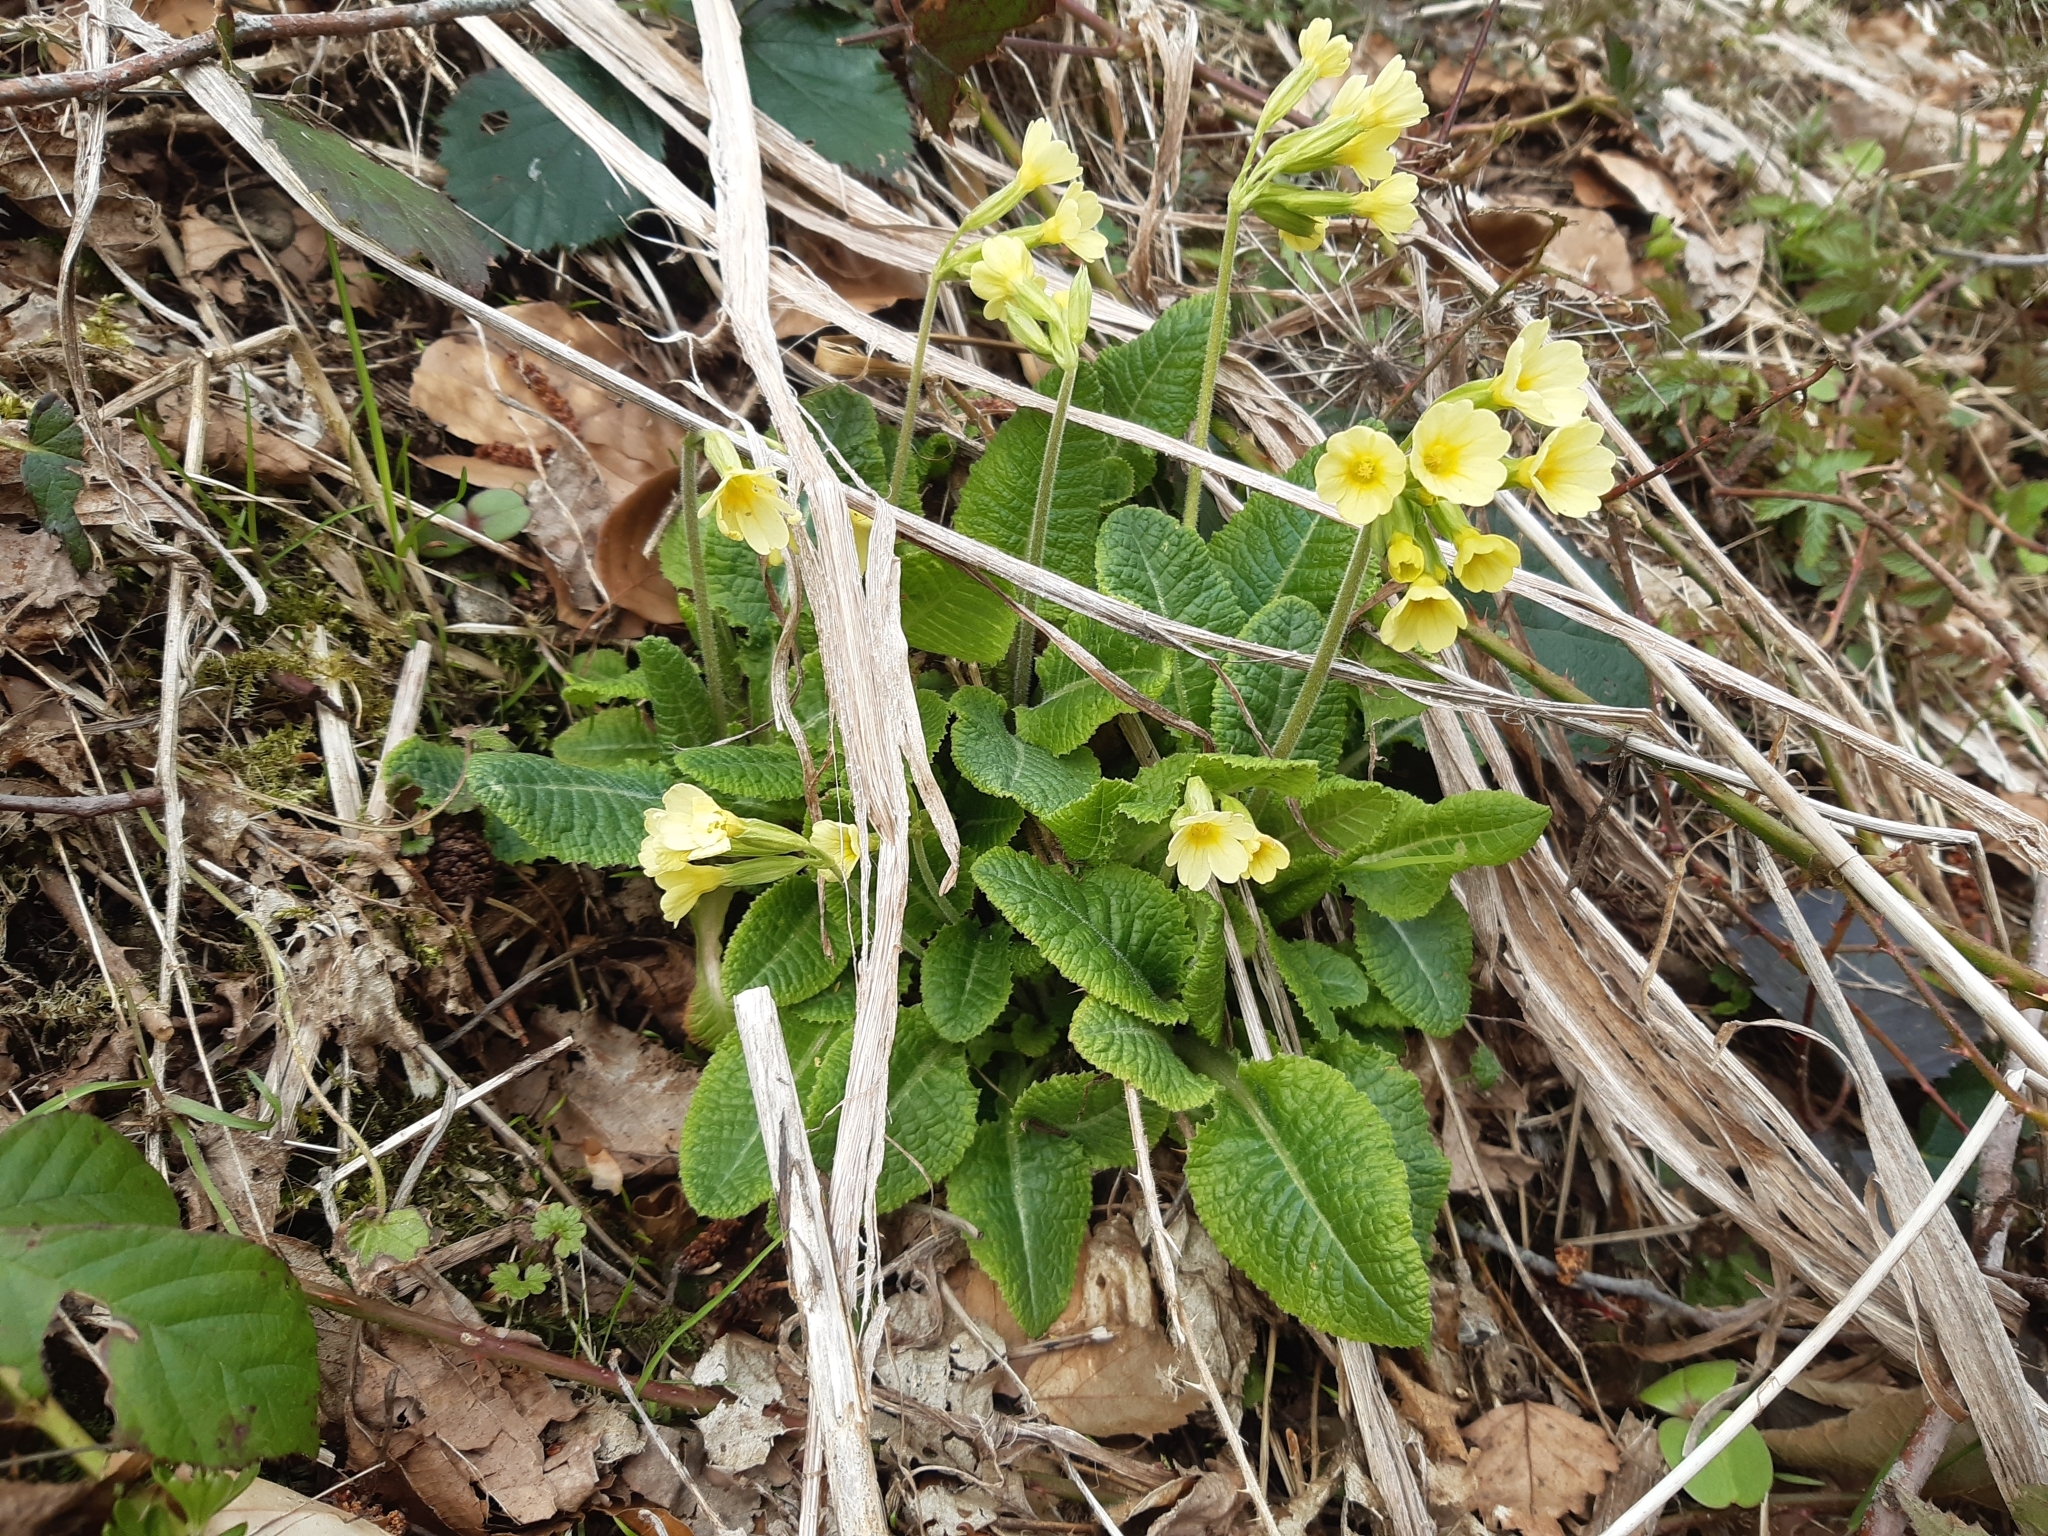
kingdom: Plantae
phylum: Tracheophyta
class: Magnoliopsida
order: Ericales
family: Primulaceae
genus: Primula
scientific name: Primula elatior
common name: Oxlip
